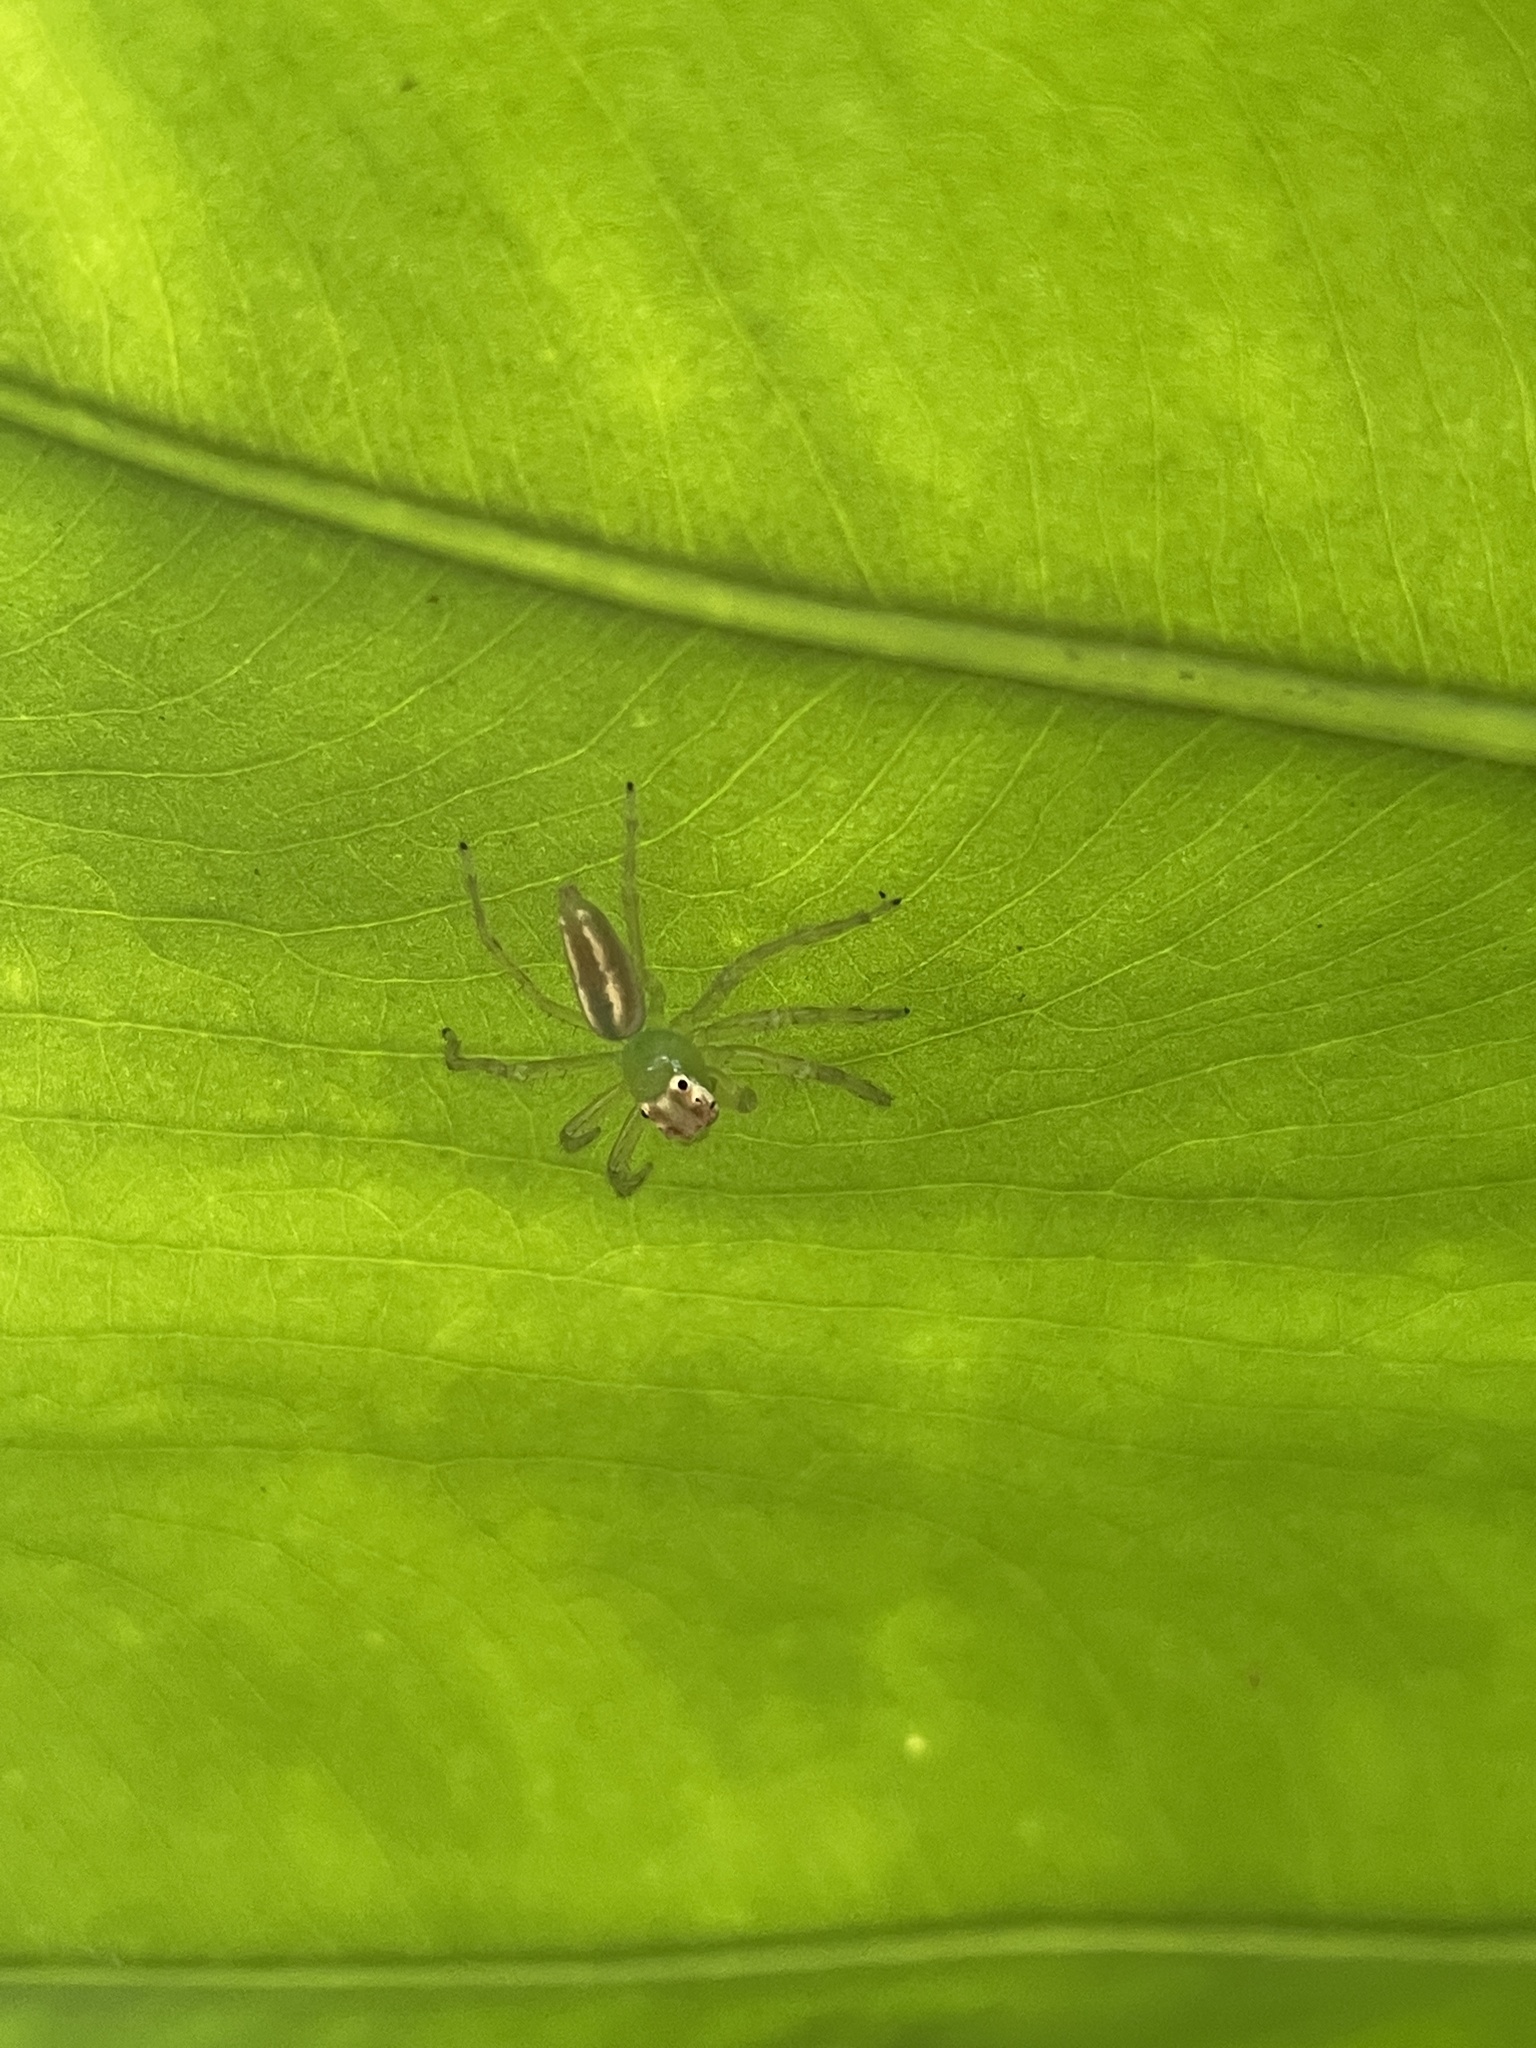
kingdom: Animalia
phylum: Arthropoda
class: Arachnida
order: Araneae
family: Salticidae
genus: Epeus
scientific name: Epeus glorius
